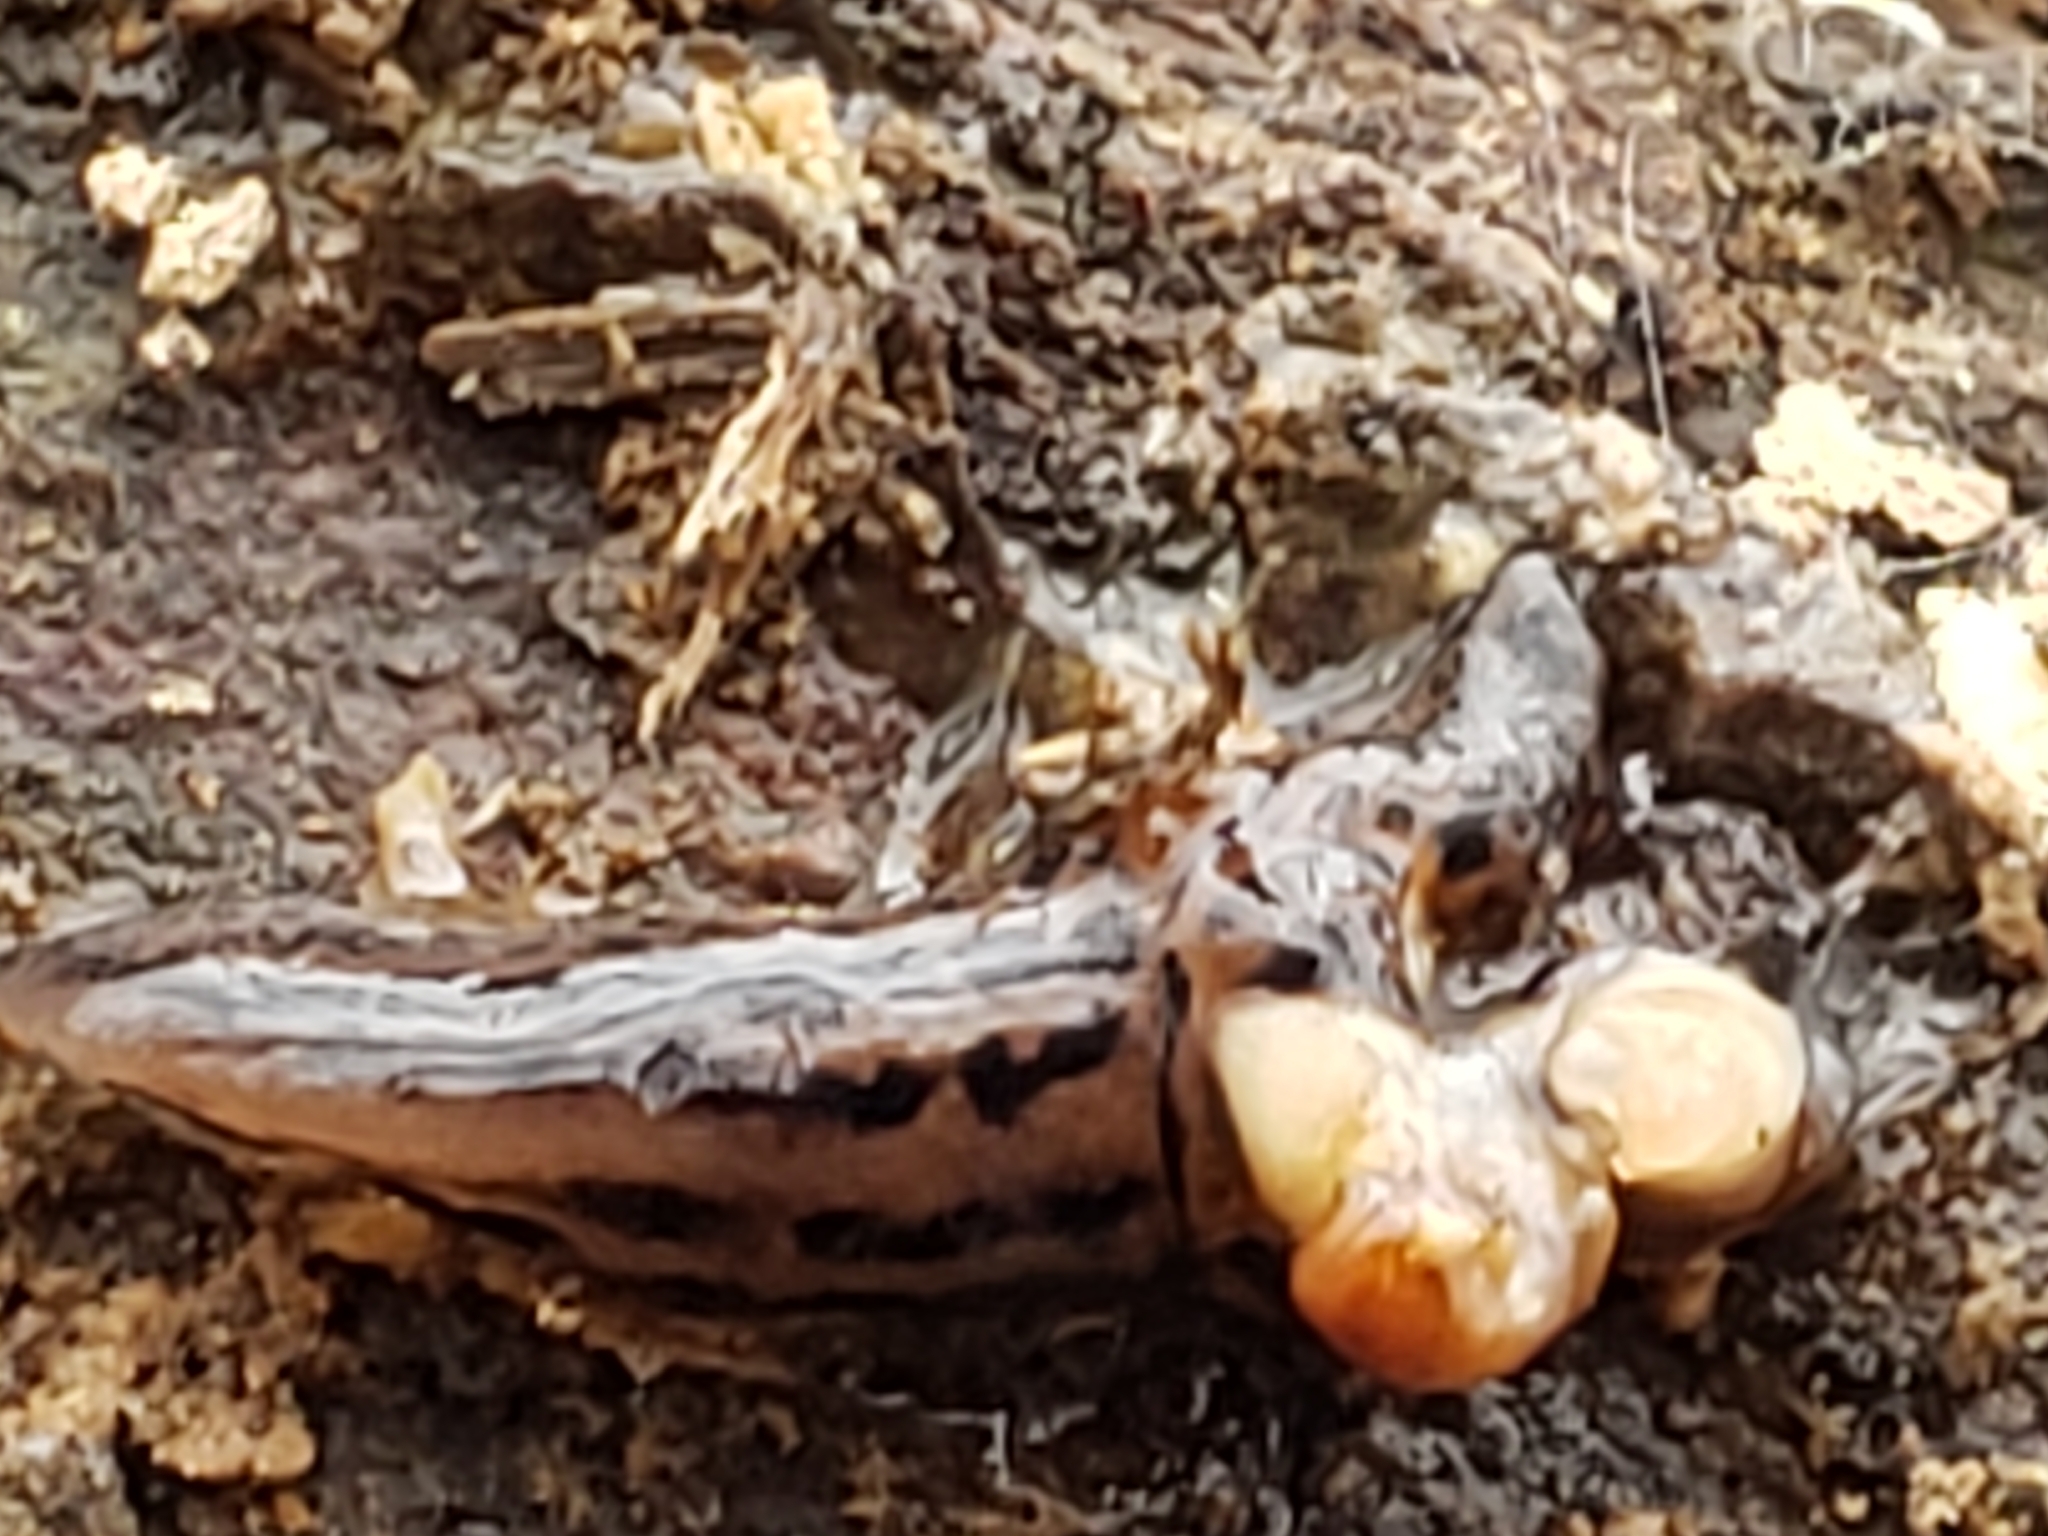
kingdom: Animalia
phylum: Mollusca
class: Gastropoda
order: Stylommatophora
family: Limacidae
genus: Limax
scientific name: Limax maximus
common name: Great grey slug
